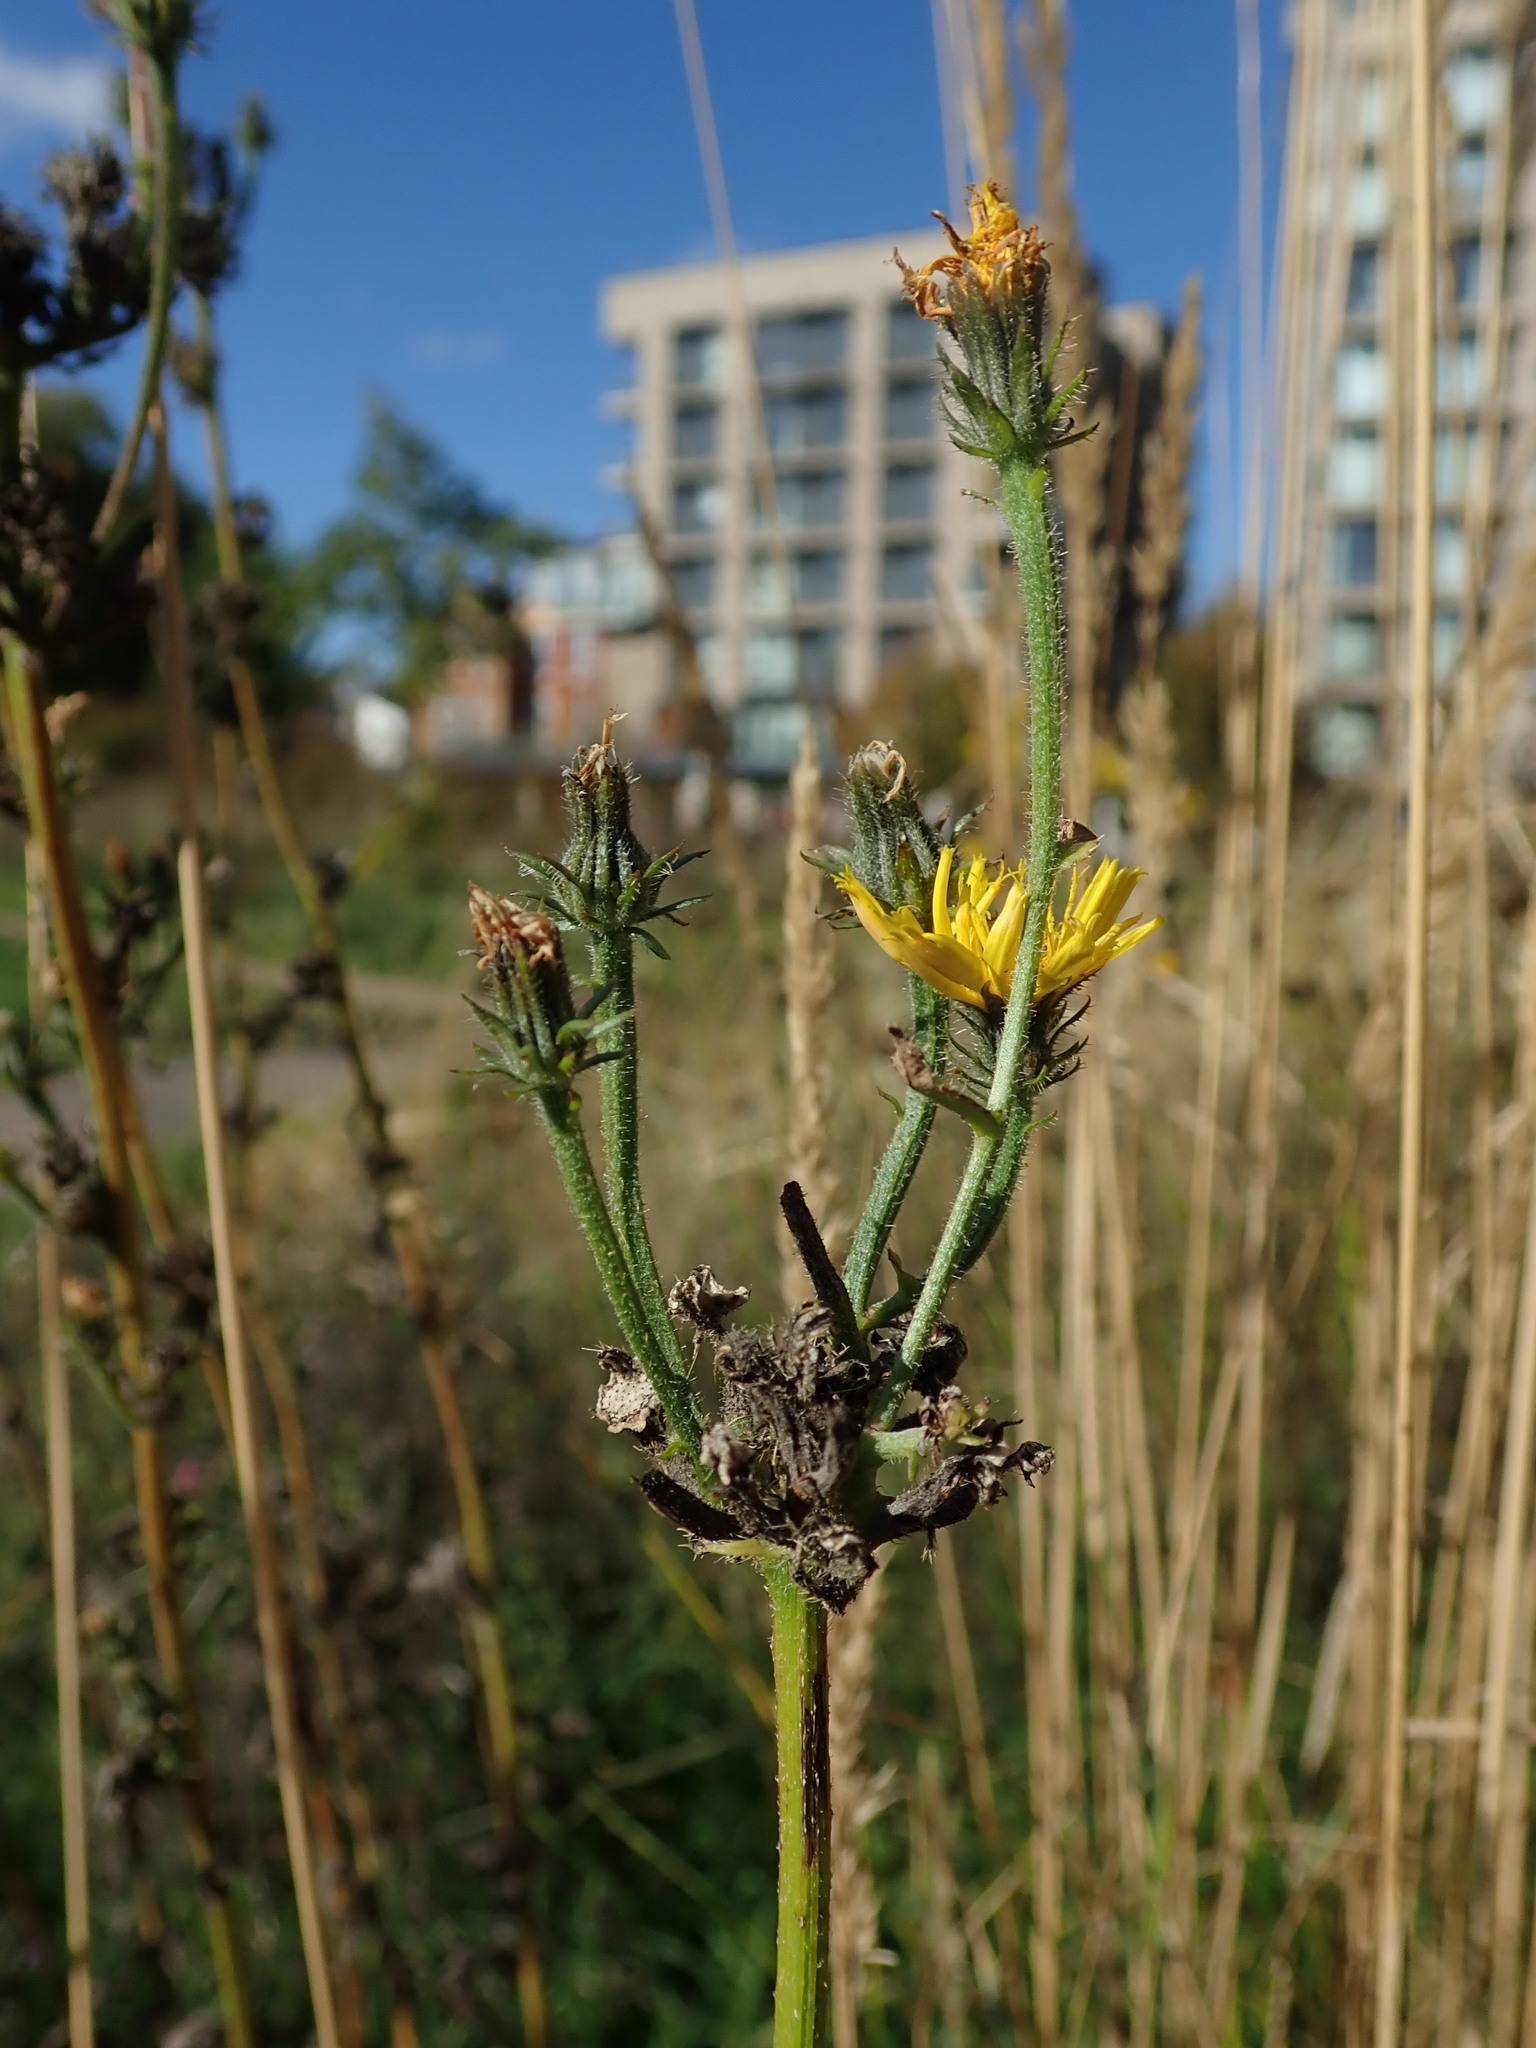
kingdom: Plantae
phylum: Tracheophyta
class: Magnoliopsida
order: Asterales
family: Asteraceae
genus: Picris
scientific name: Picris hieracioides
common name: Hawkweed oxtongue
